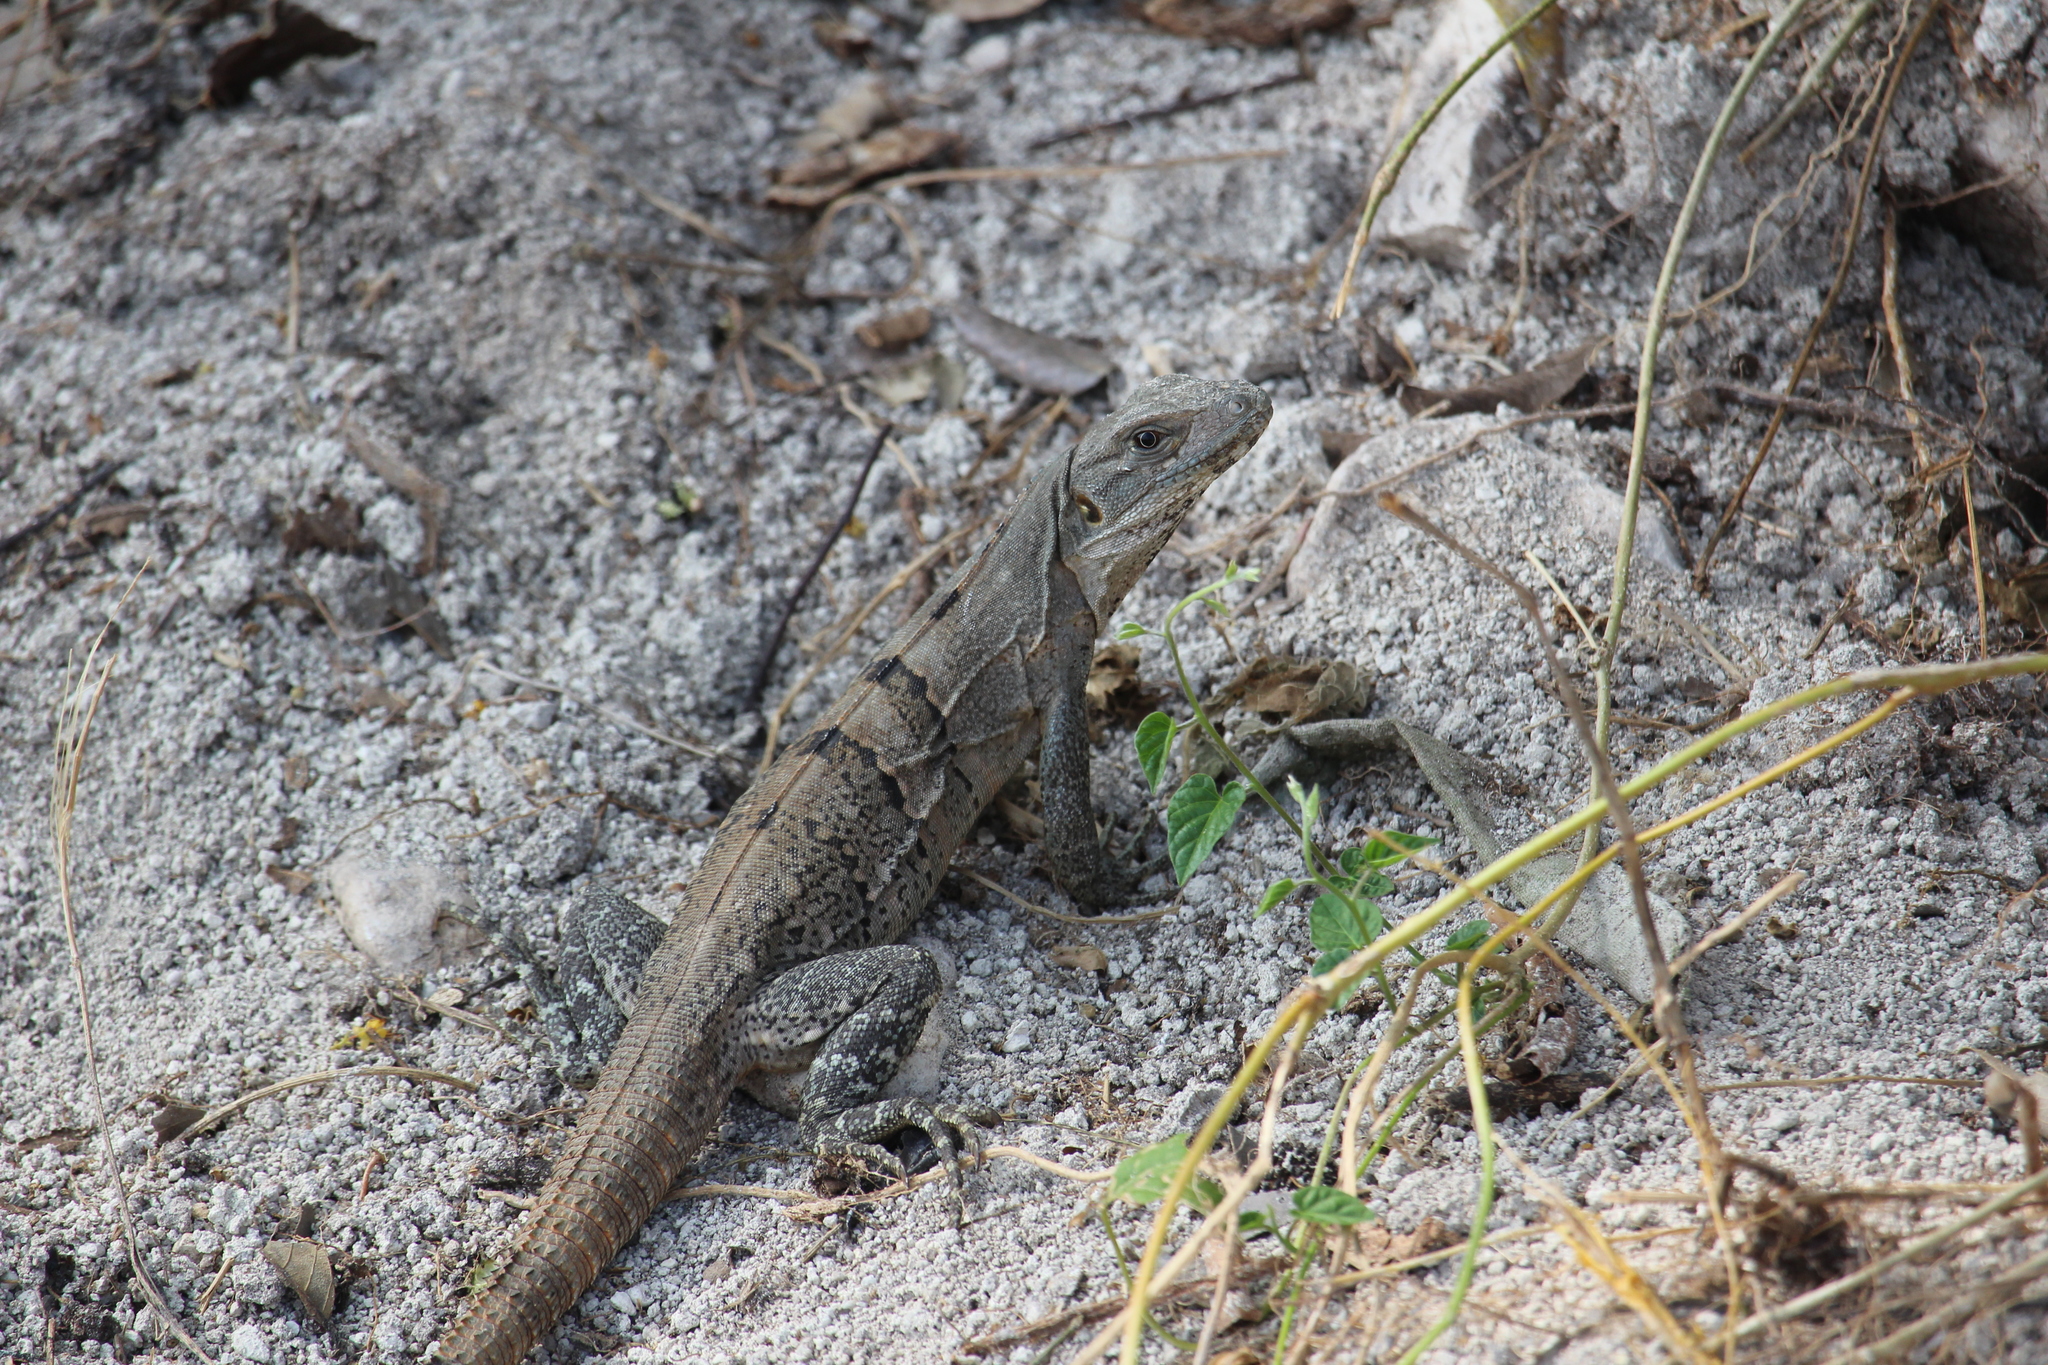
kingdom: Animalia
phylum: Chordata
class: Squamata
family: Iguanidae
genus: Ctenosaura
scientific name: Ctenosaura similis
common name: Black spiny-tailed iguana
